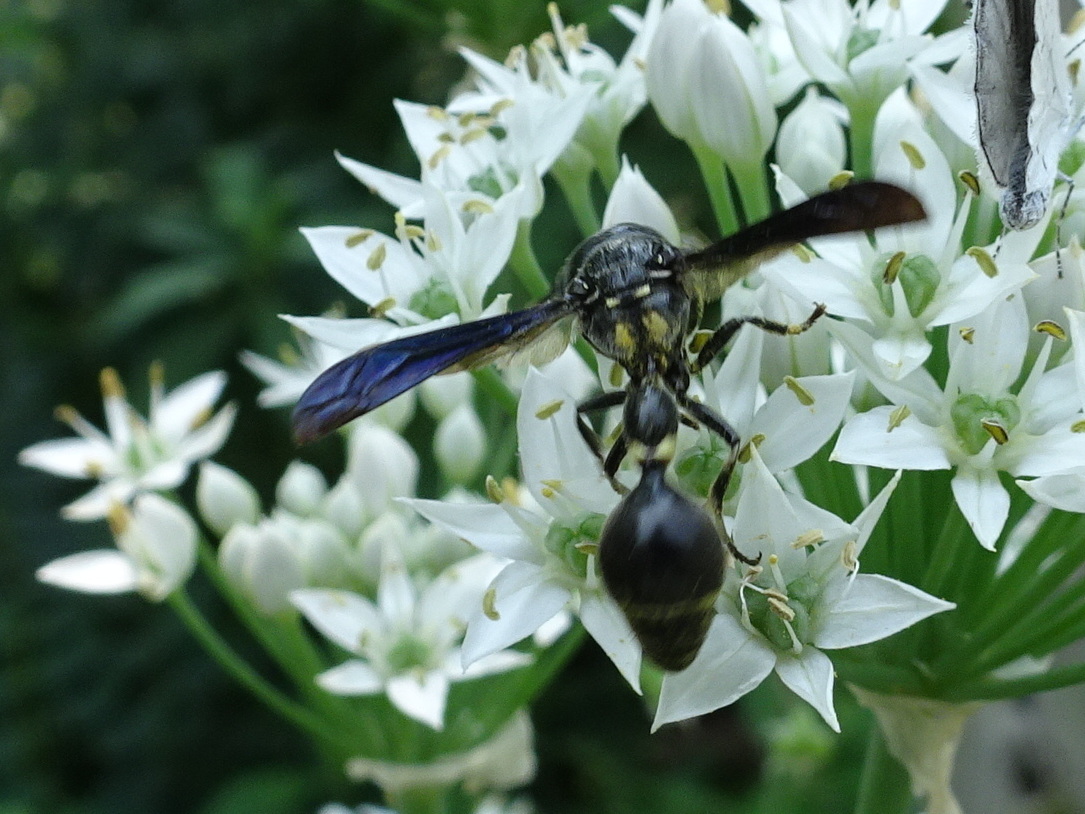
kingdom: Animalia
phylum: Arthropoda
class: Insecta
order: Hymenoptera
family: Eumenidae
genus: Zethus
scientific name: Zethus spinipes
